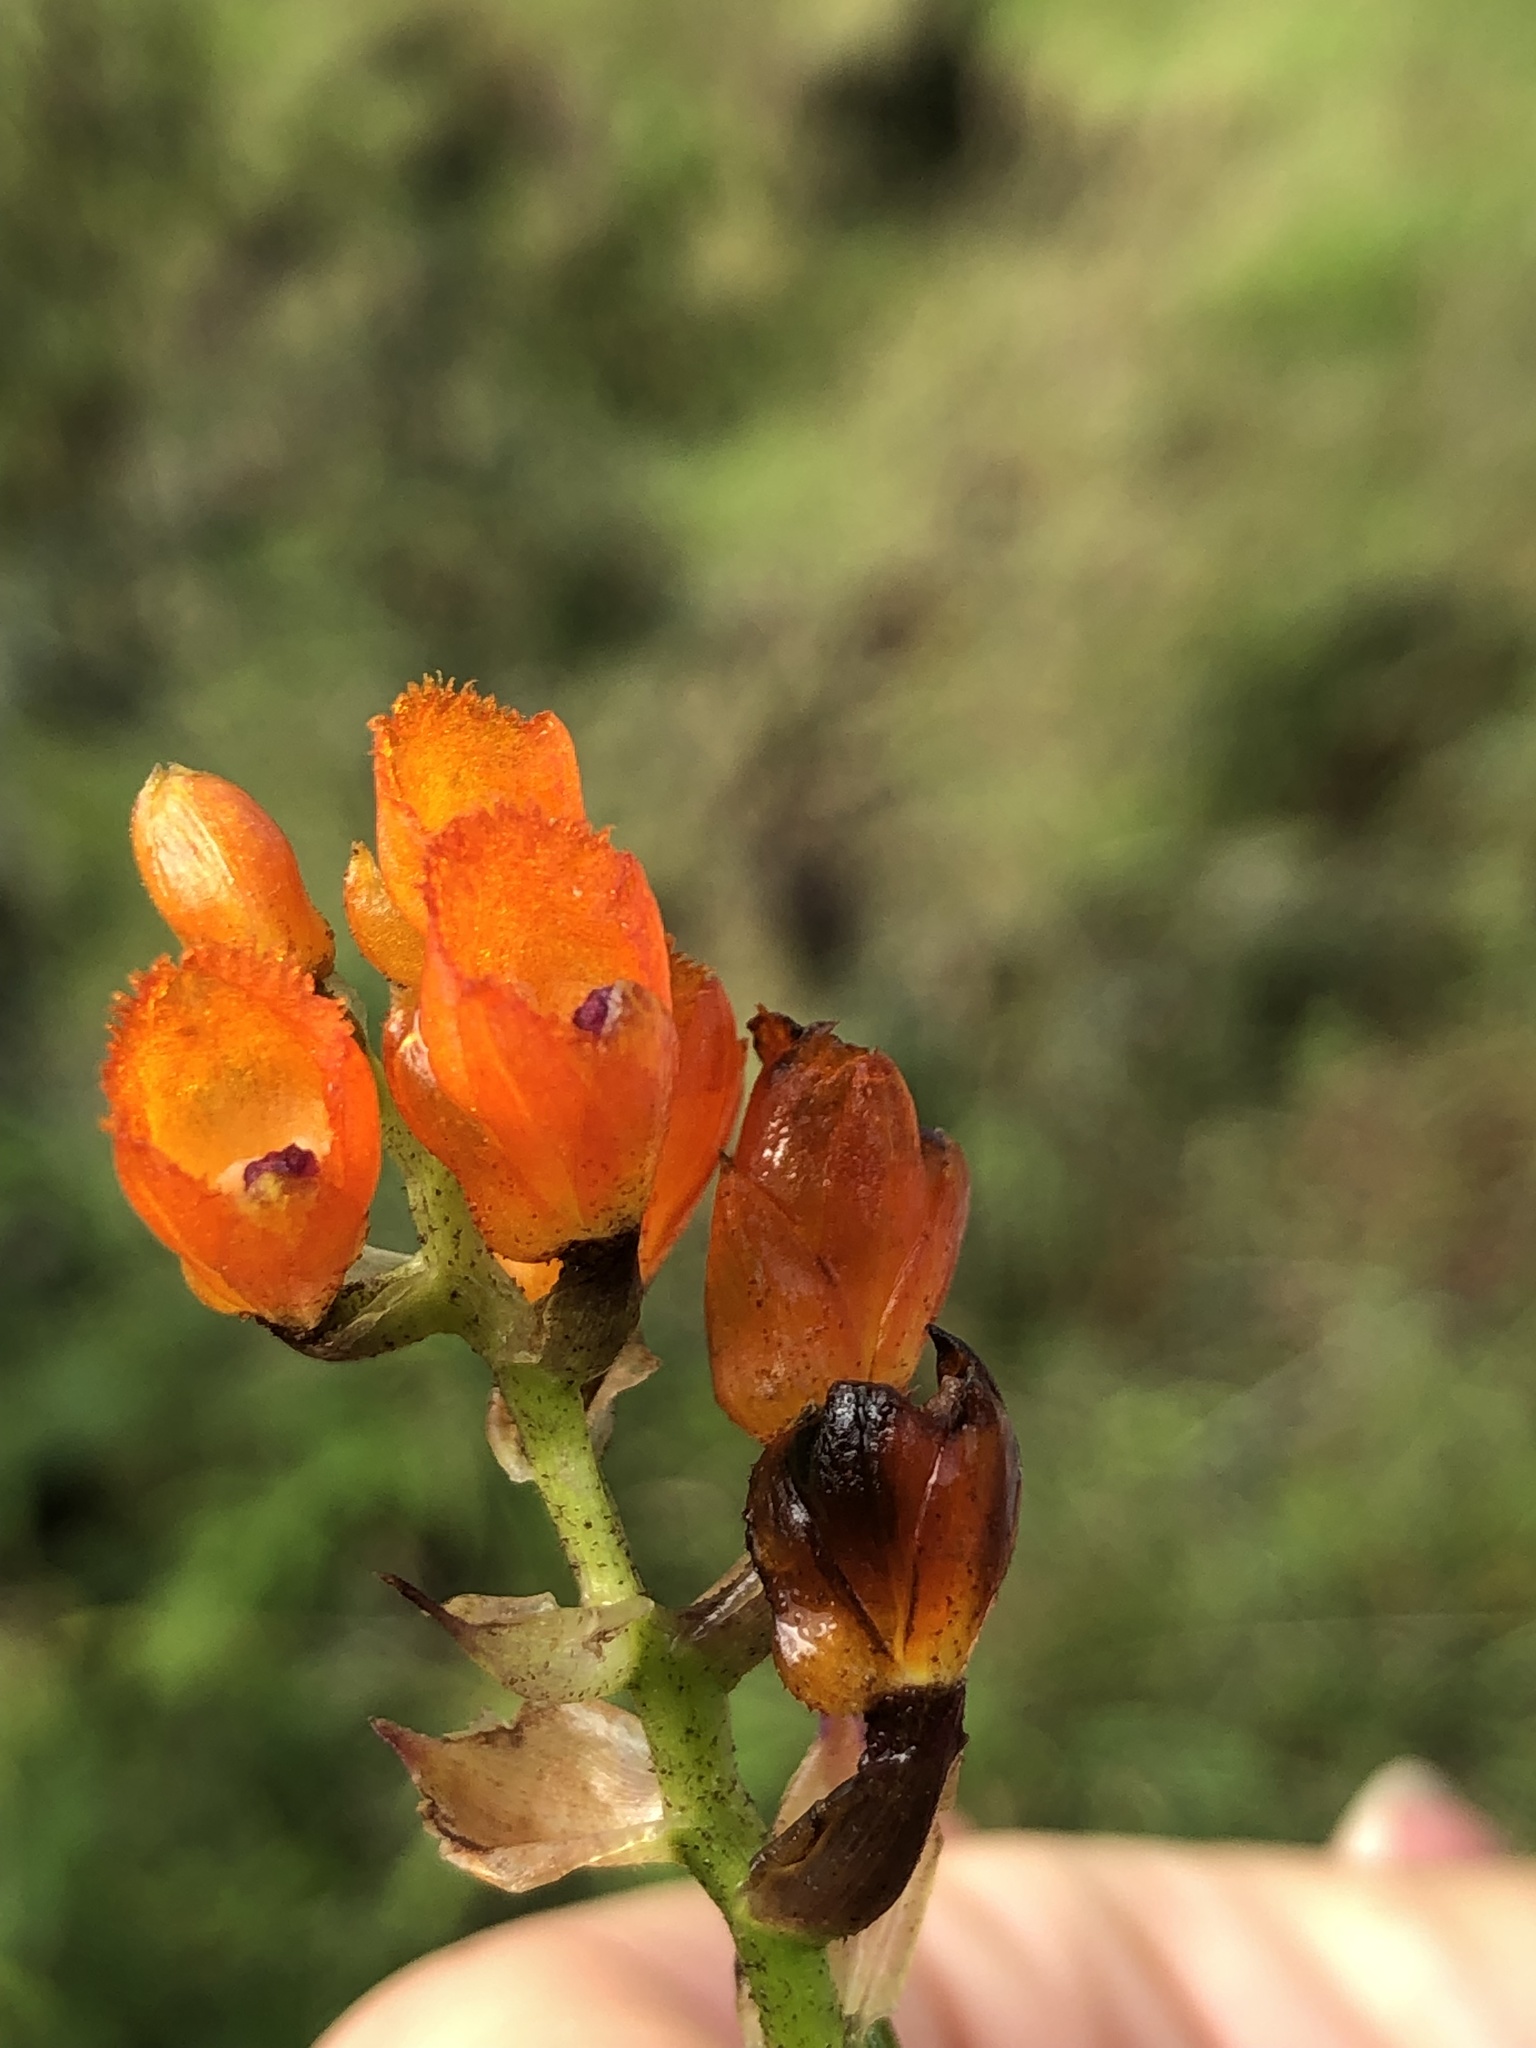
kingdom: Plantae
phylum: Tracheophyta
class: Liliopsida
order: Asparagales
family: Orchidaceae
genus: Elleanthus
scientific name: Elleanthus aurantiacus
